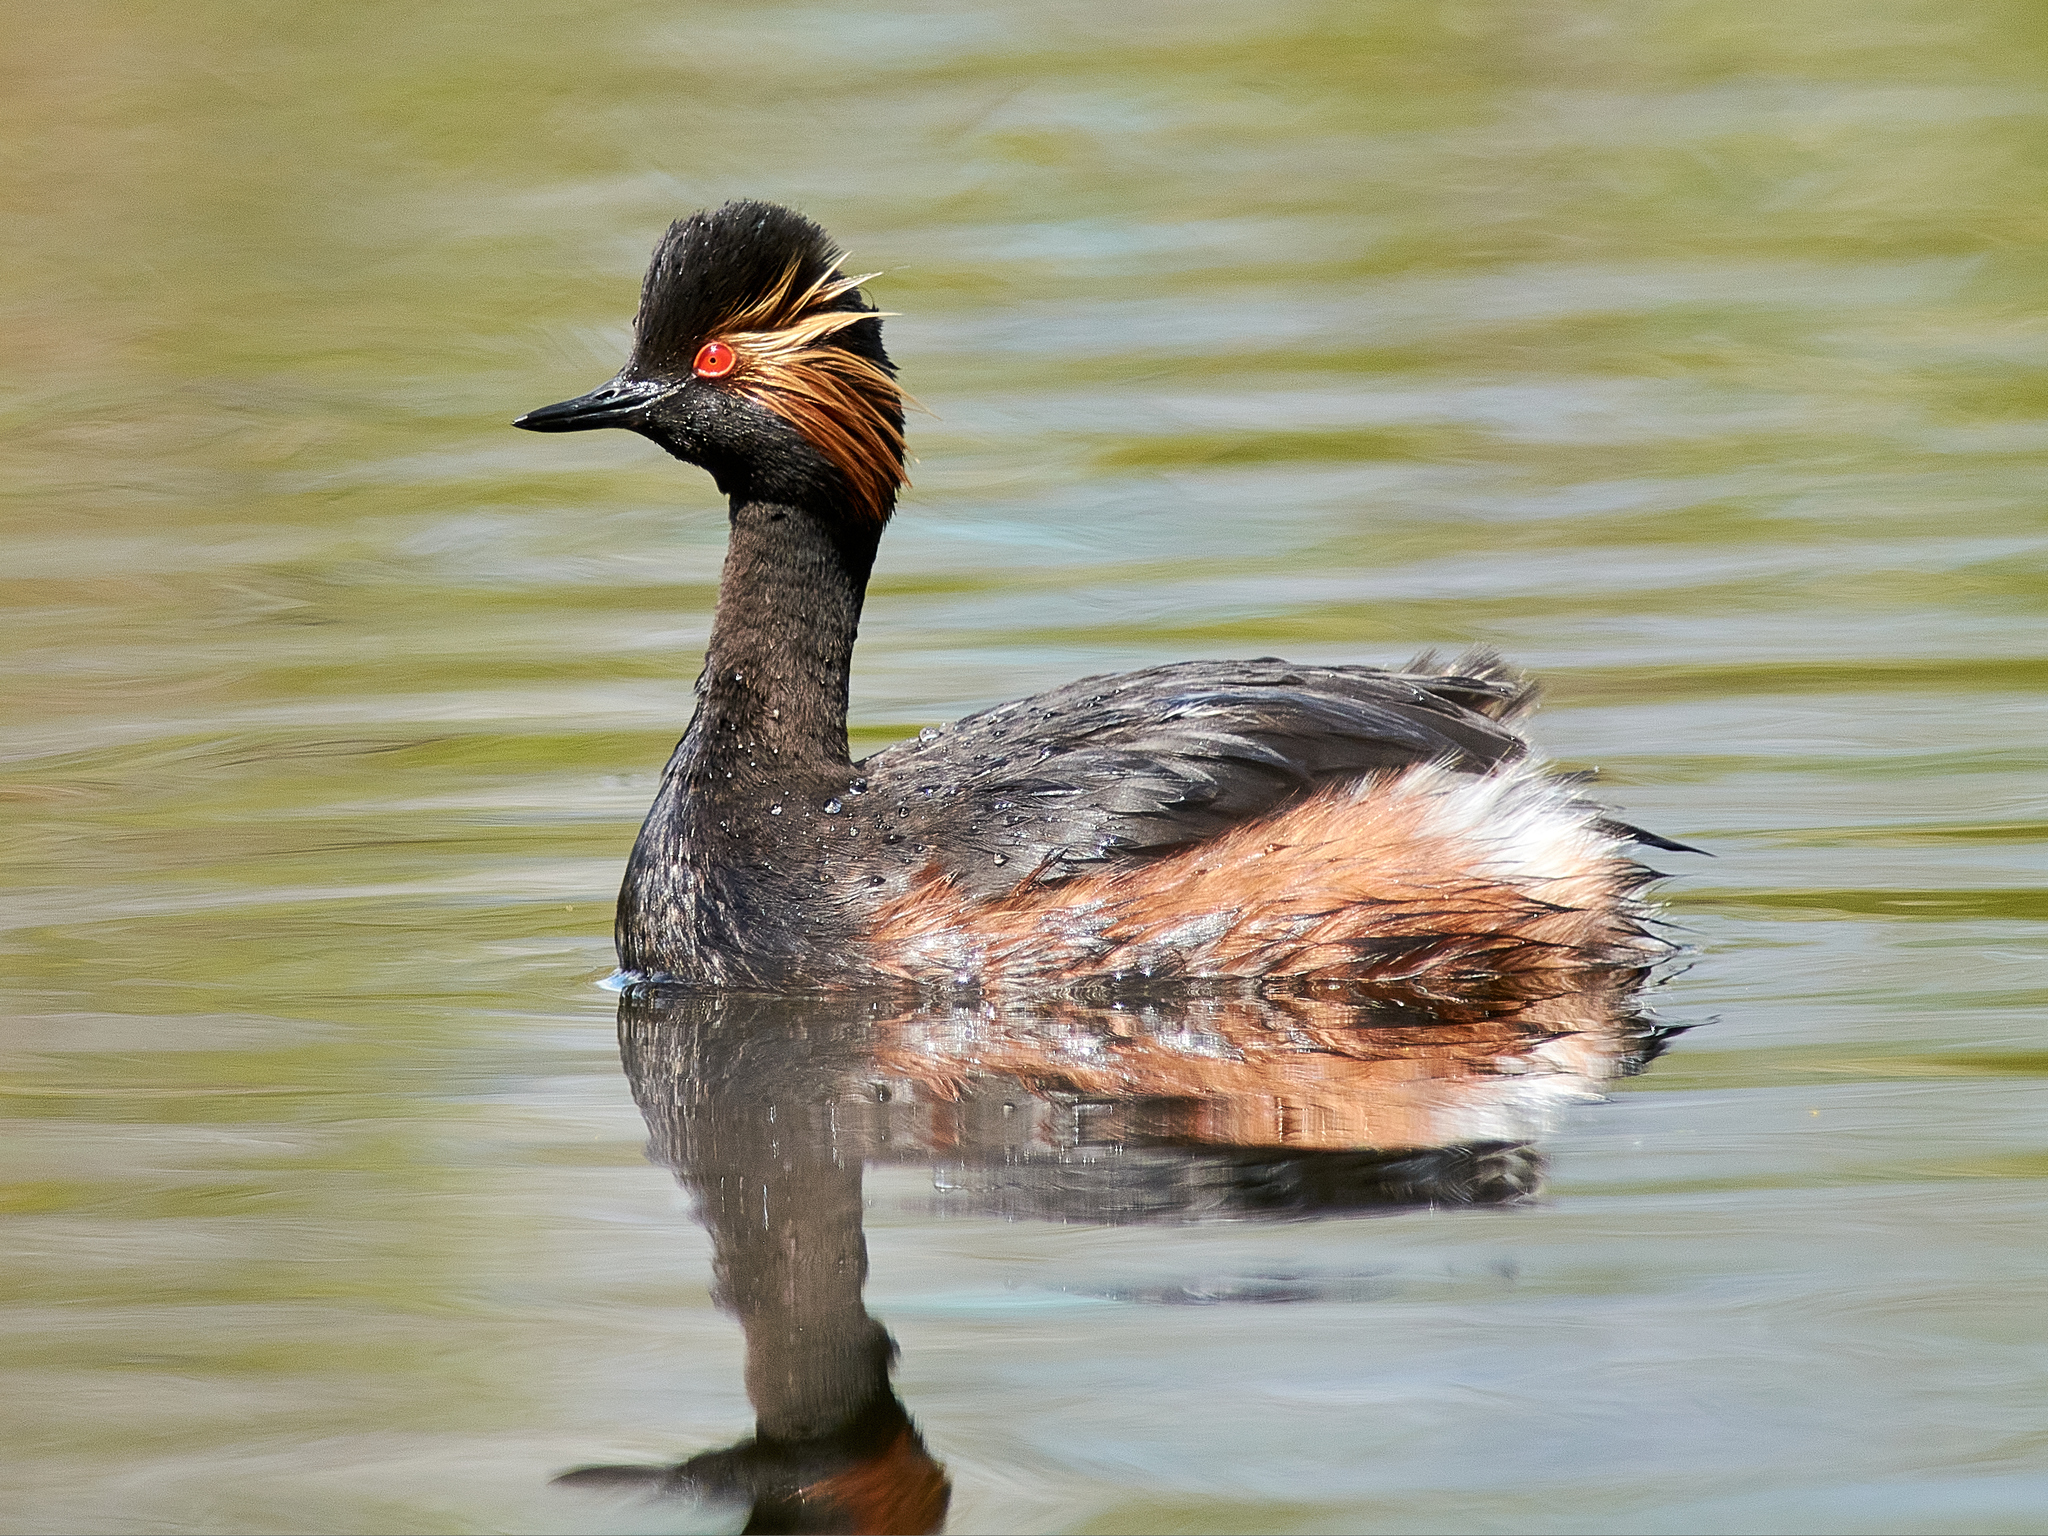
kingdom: Animalia
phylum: Chordata
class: Aves
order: Podicipediformes
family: Podicipedidae
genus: Podiceps
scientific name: Podiceps nigricollis
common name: Black-necked grebe
